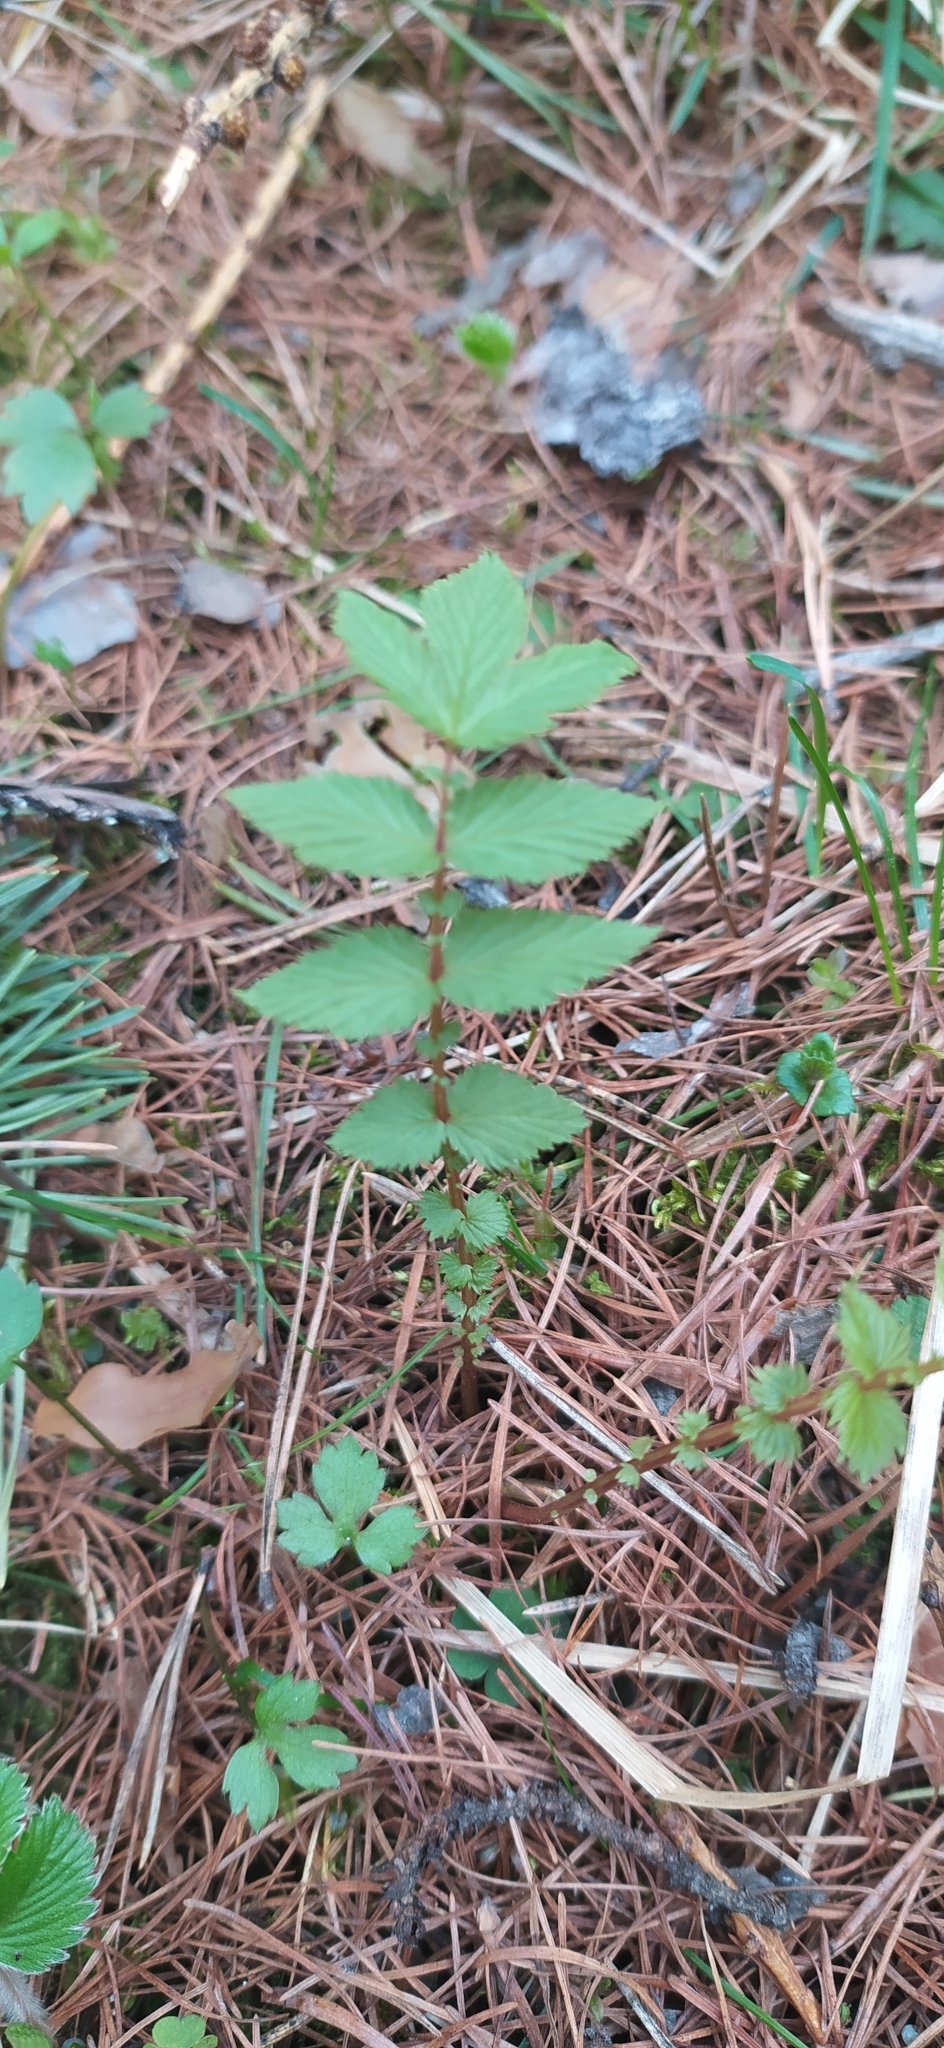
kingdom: Plantae
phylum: Tracheophyta
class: Magnoliopsida
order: Rosales
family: Rosaceae
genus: Filipendula
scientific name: Filipendula ulmaria
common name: Meadowsweet
